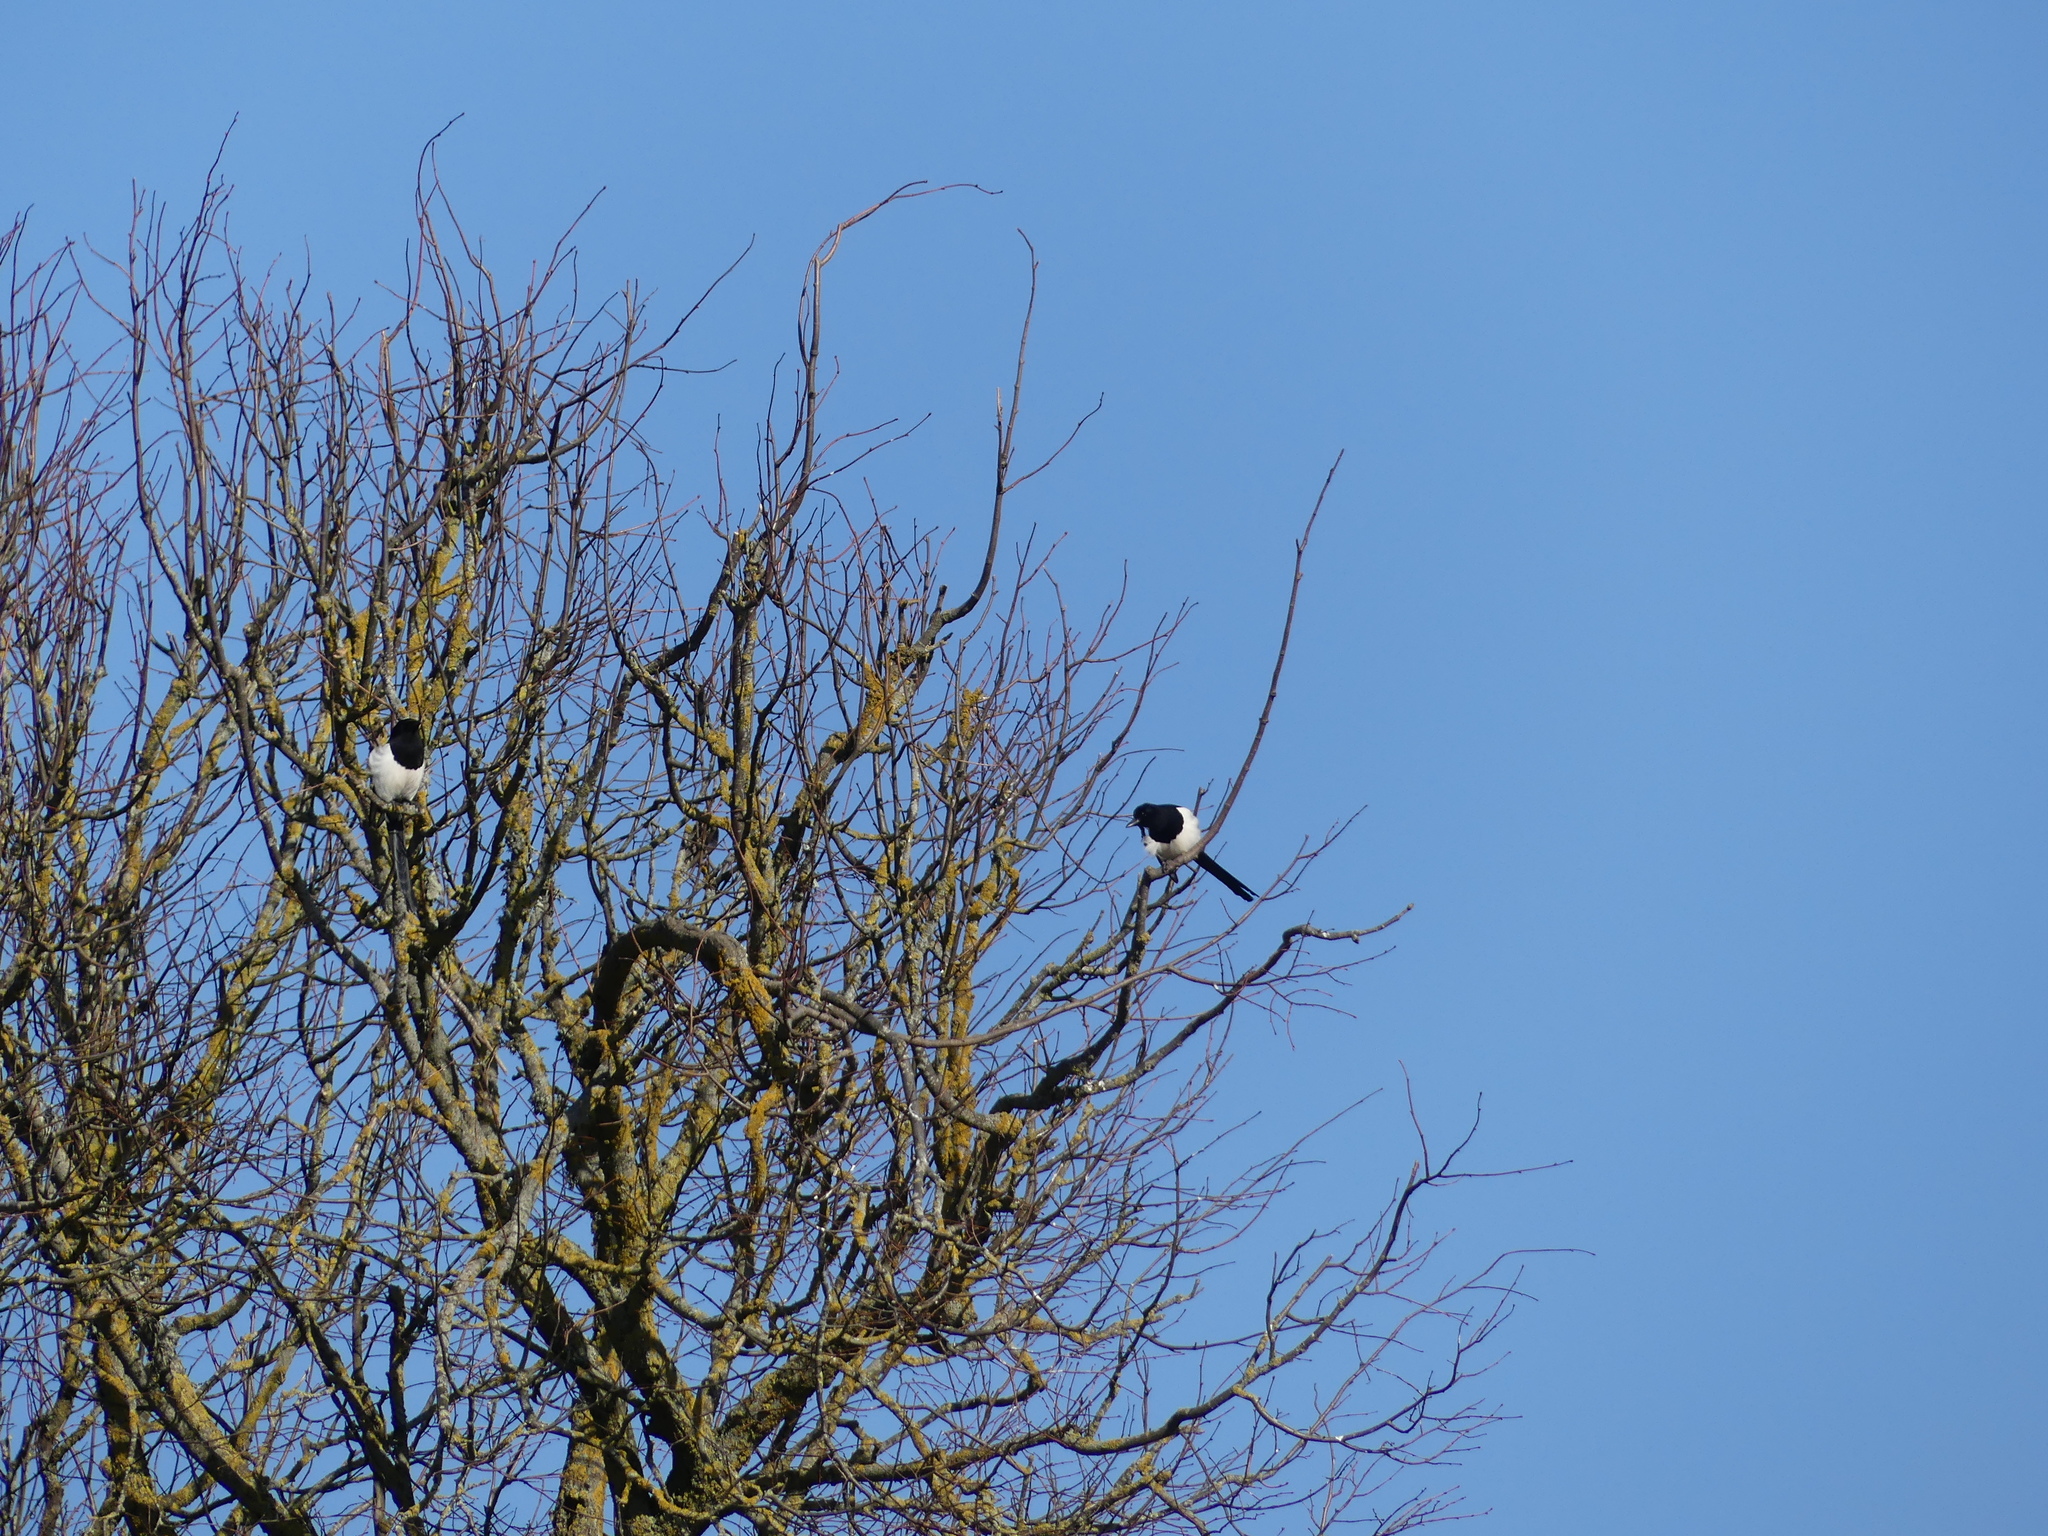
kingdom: Animalia
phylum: Chordata
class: Aves
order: Passeriformes
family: Corvidae
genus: Pica
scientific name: Pica pica
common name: Eurasian magpie
